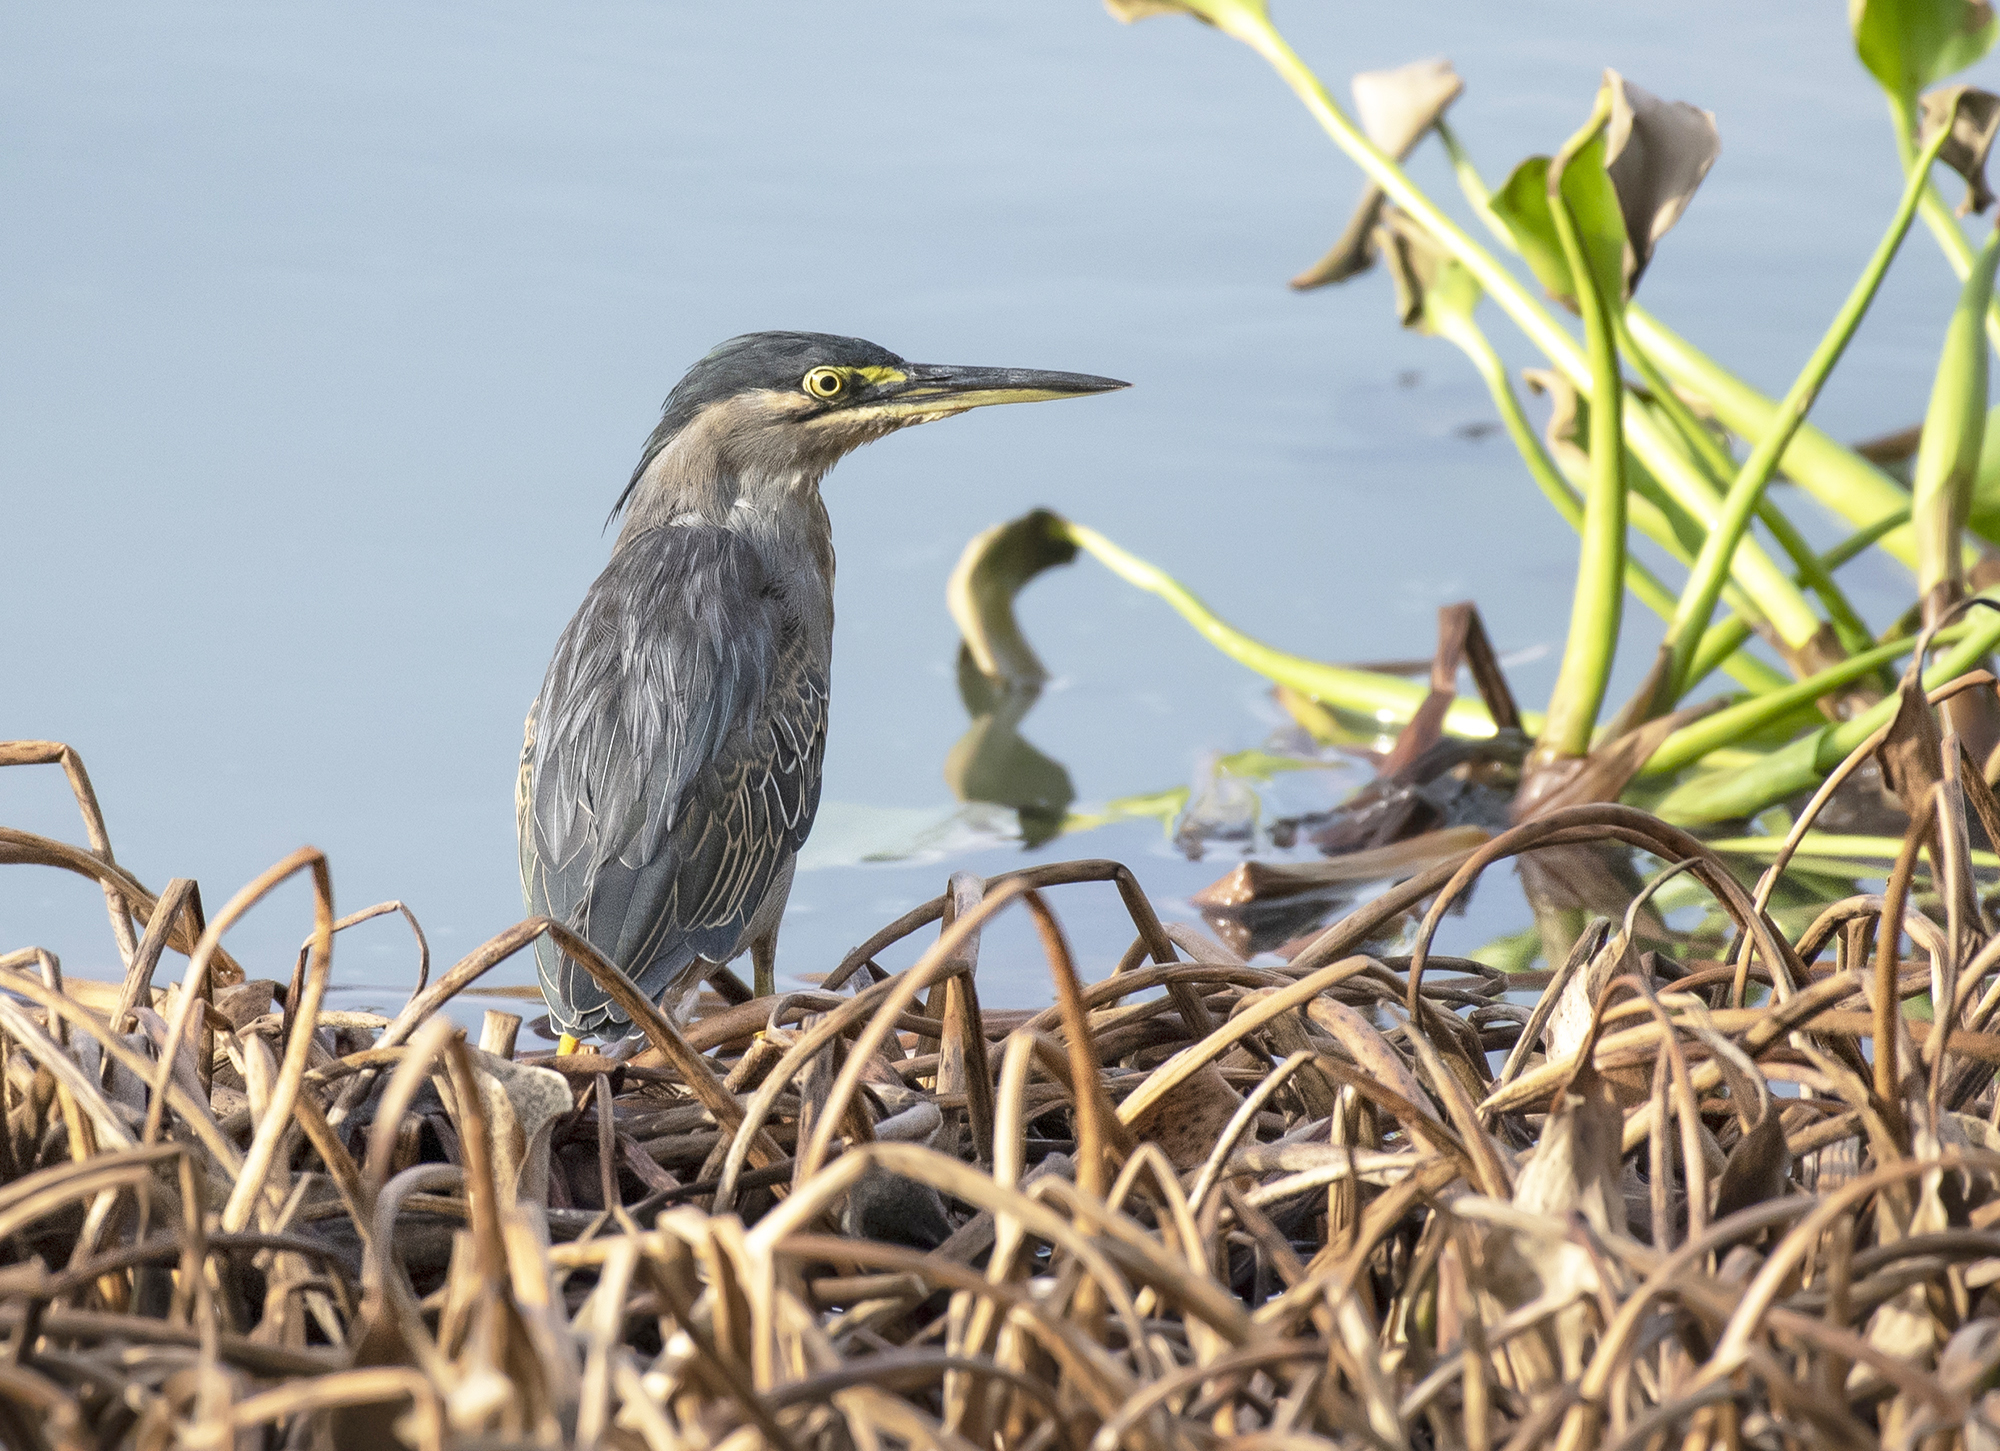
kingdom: Animalia
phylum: Chordata
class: Aves
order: Pelecaniformes
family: Ardeidae
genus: Butorides
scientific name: Butorides striata
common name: Striated heron
